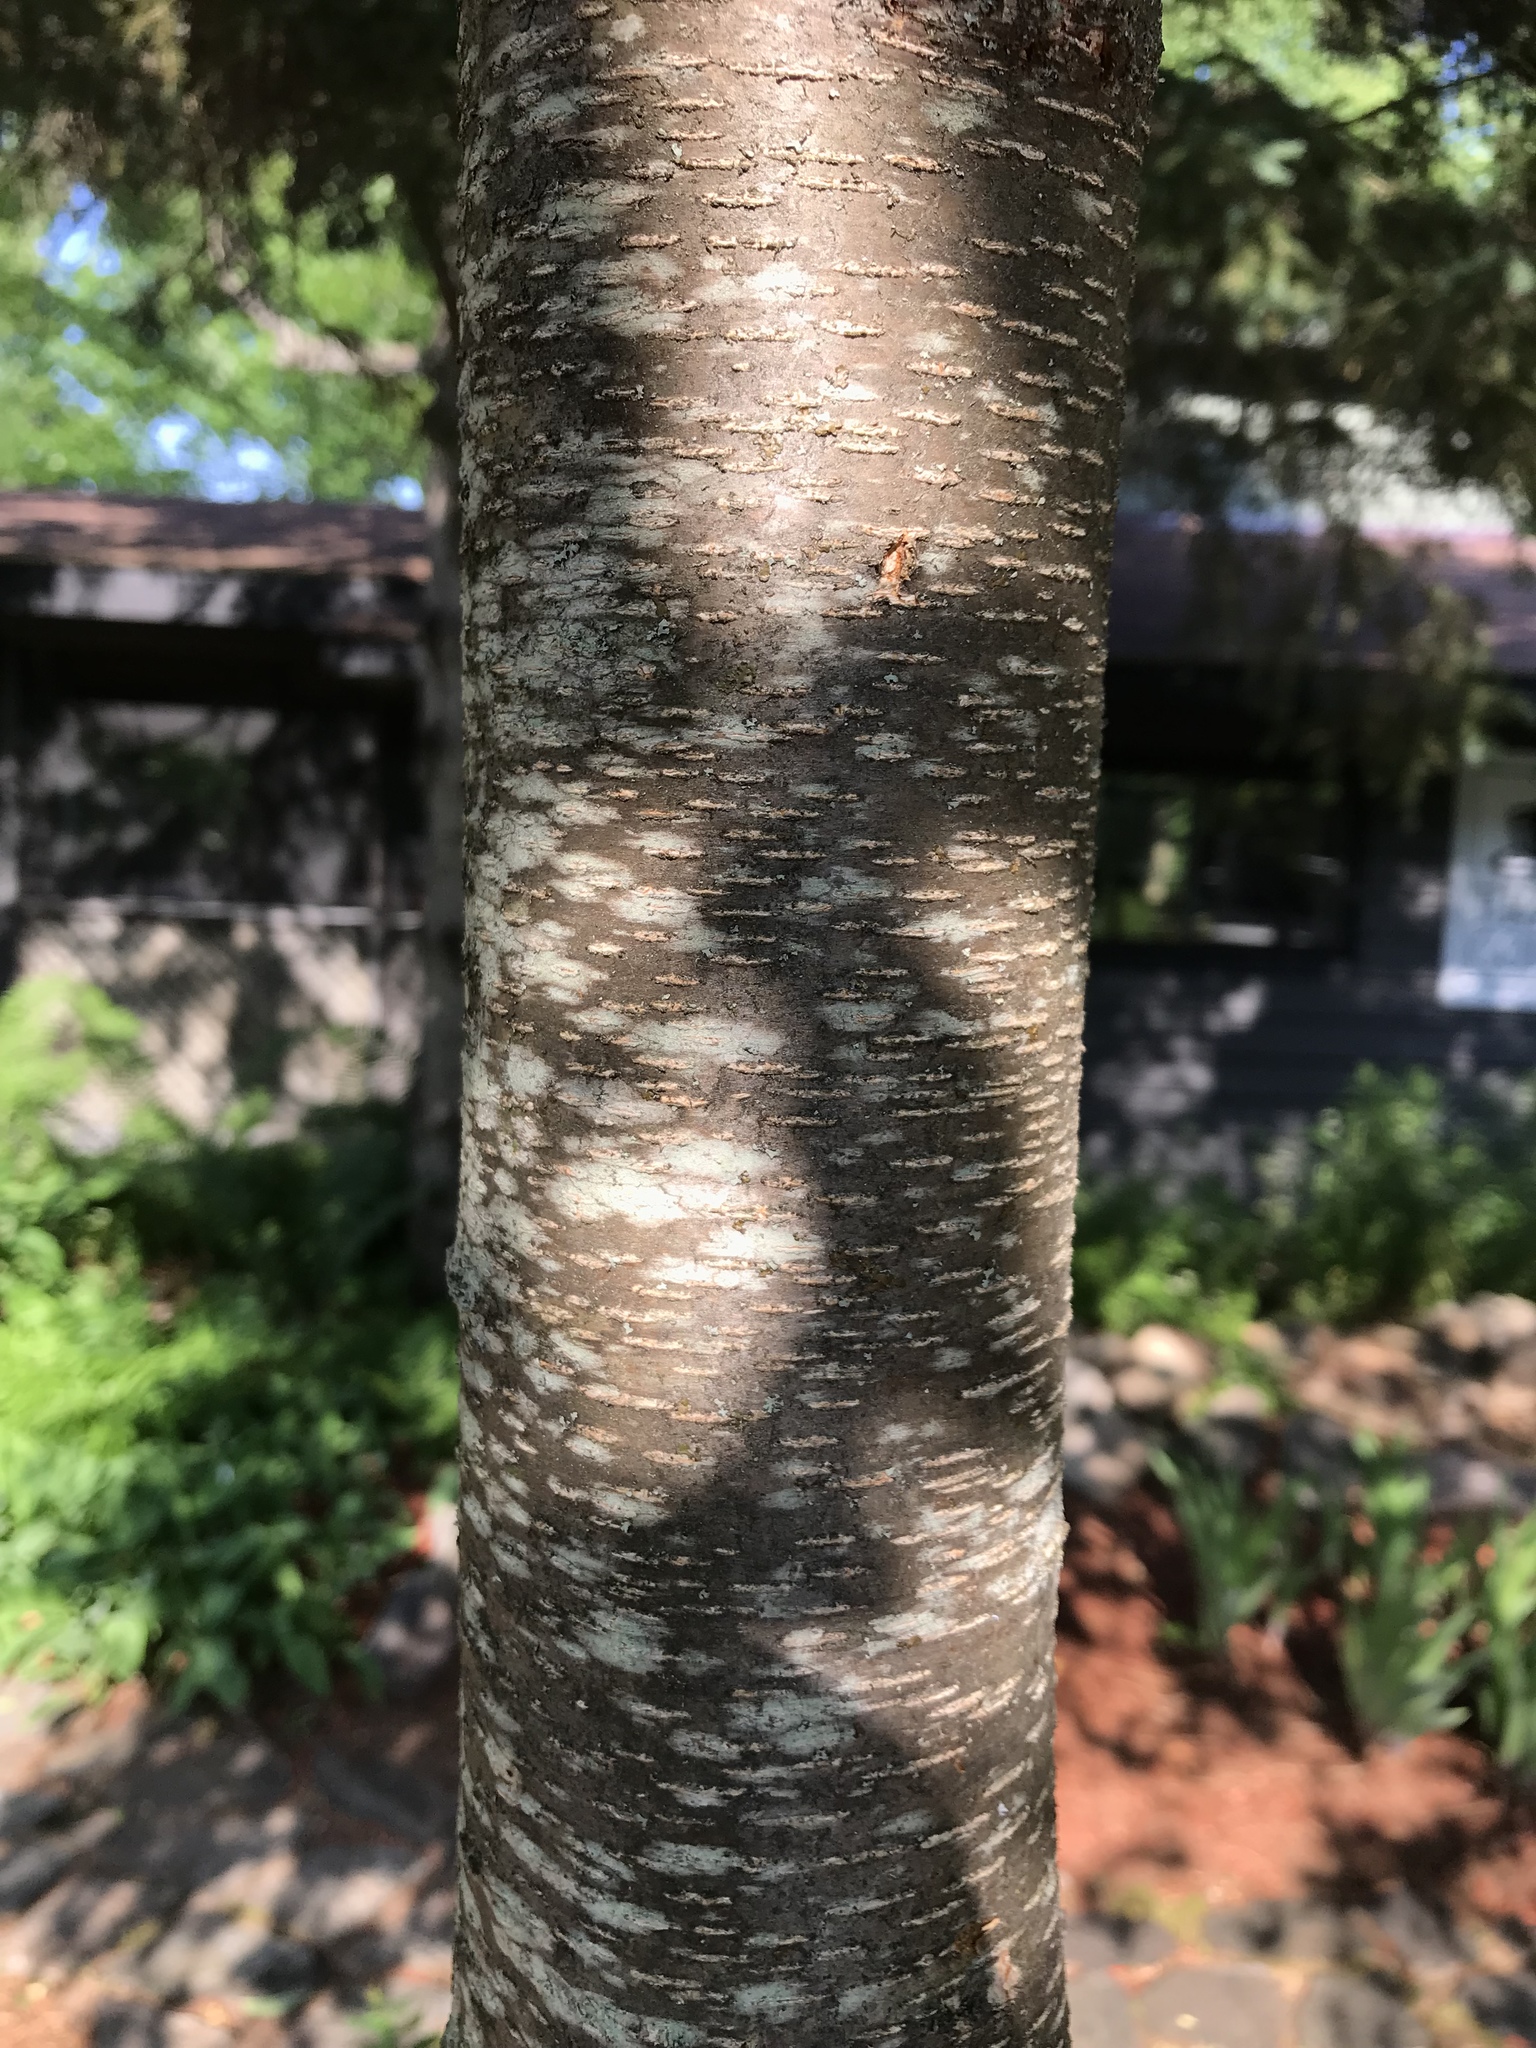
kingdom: Plantae
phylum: Tracheophyta
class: Magnoliopsida
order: Rosales
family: Rosaceae
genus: Prunus
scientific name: Prunus serotina
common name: Black cherry
